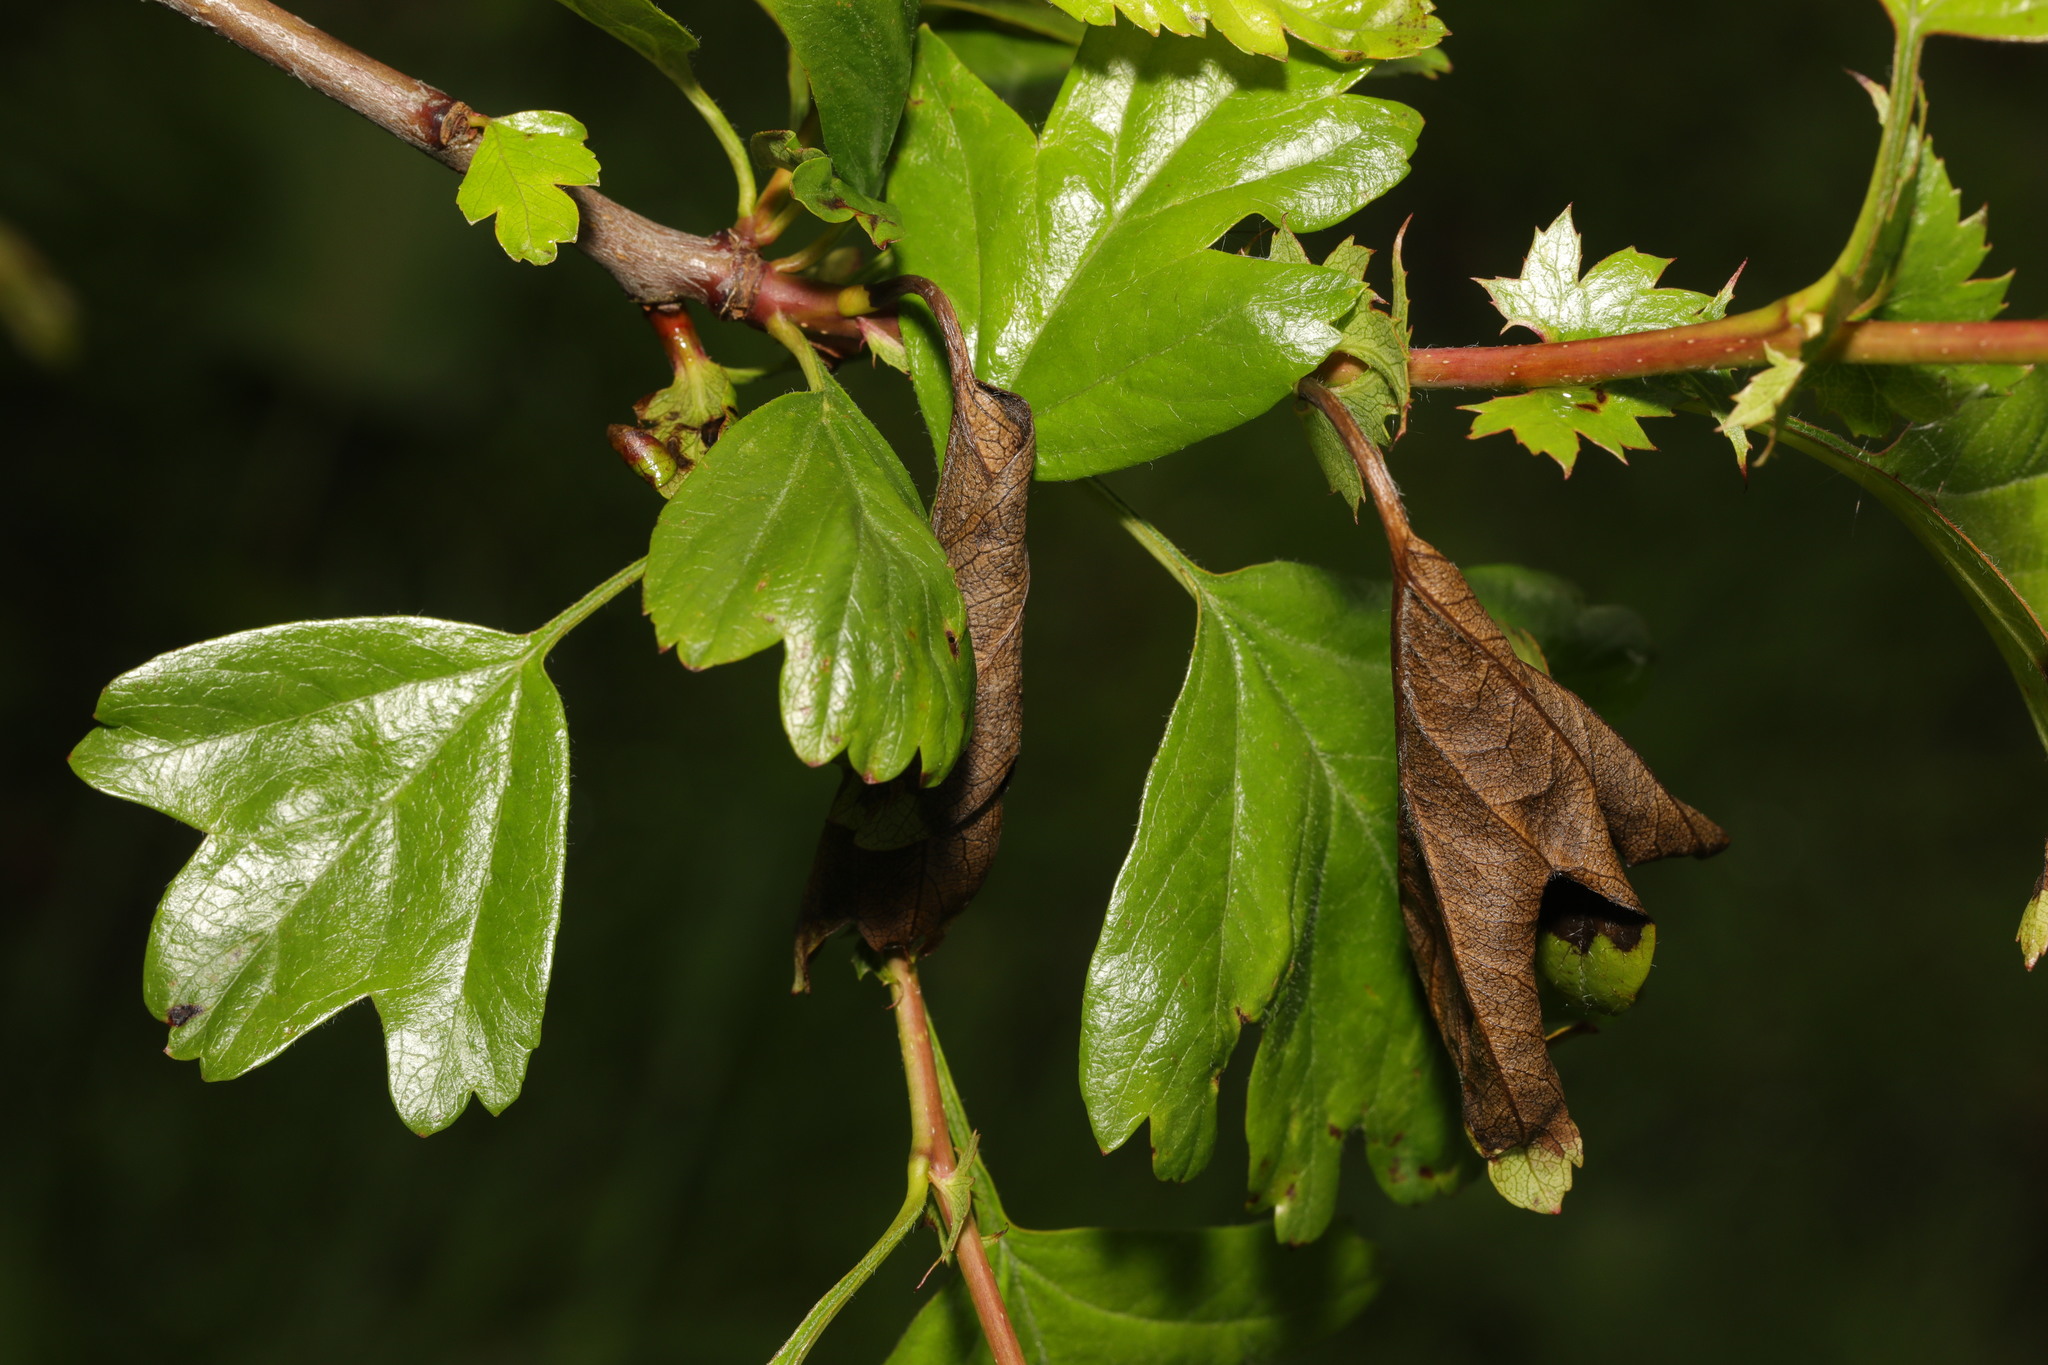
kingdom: Plantae
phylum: Tracheophyta
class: Magnoliopsida
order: Rosales
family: Rosaceae
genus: Crataegus
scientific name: Crataegus monogyna
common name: Hawthorn
